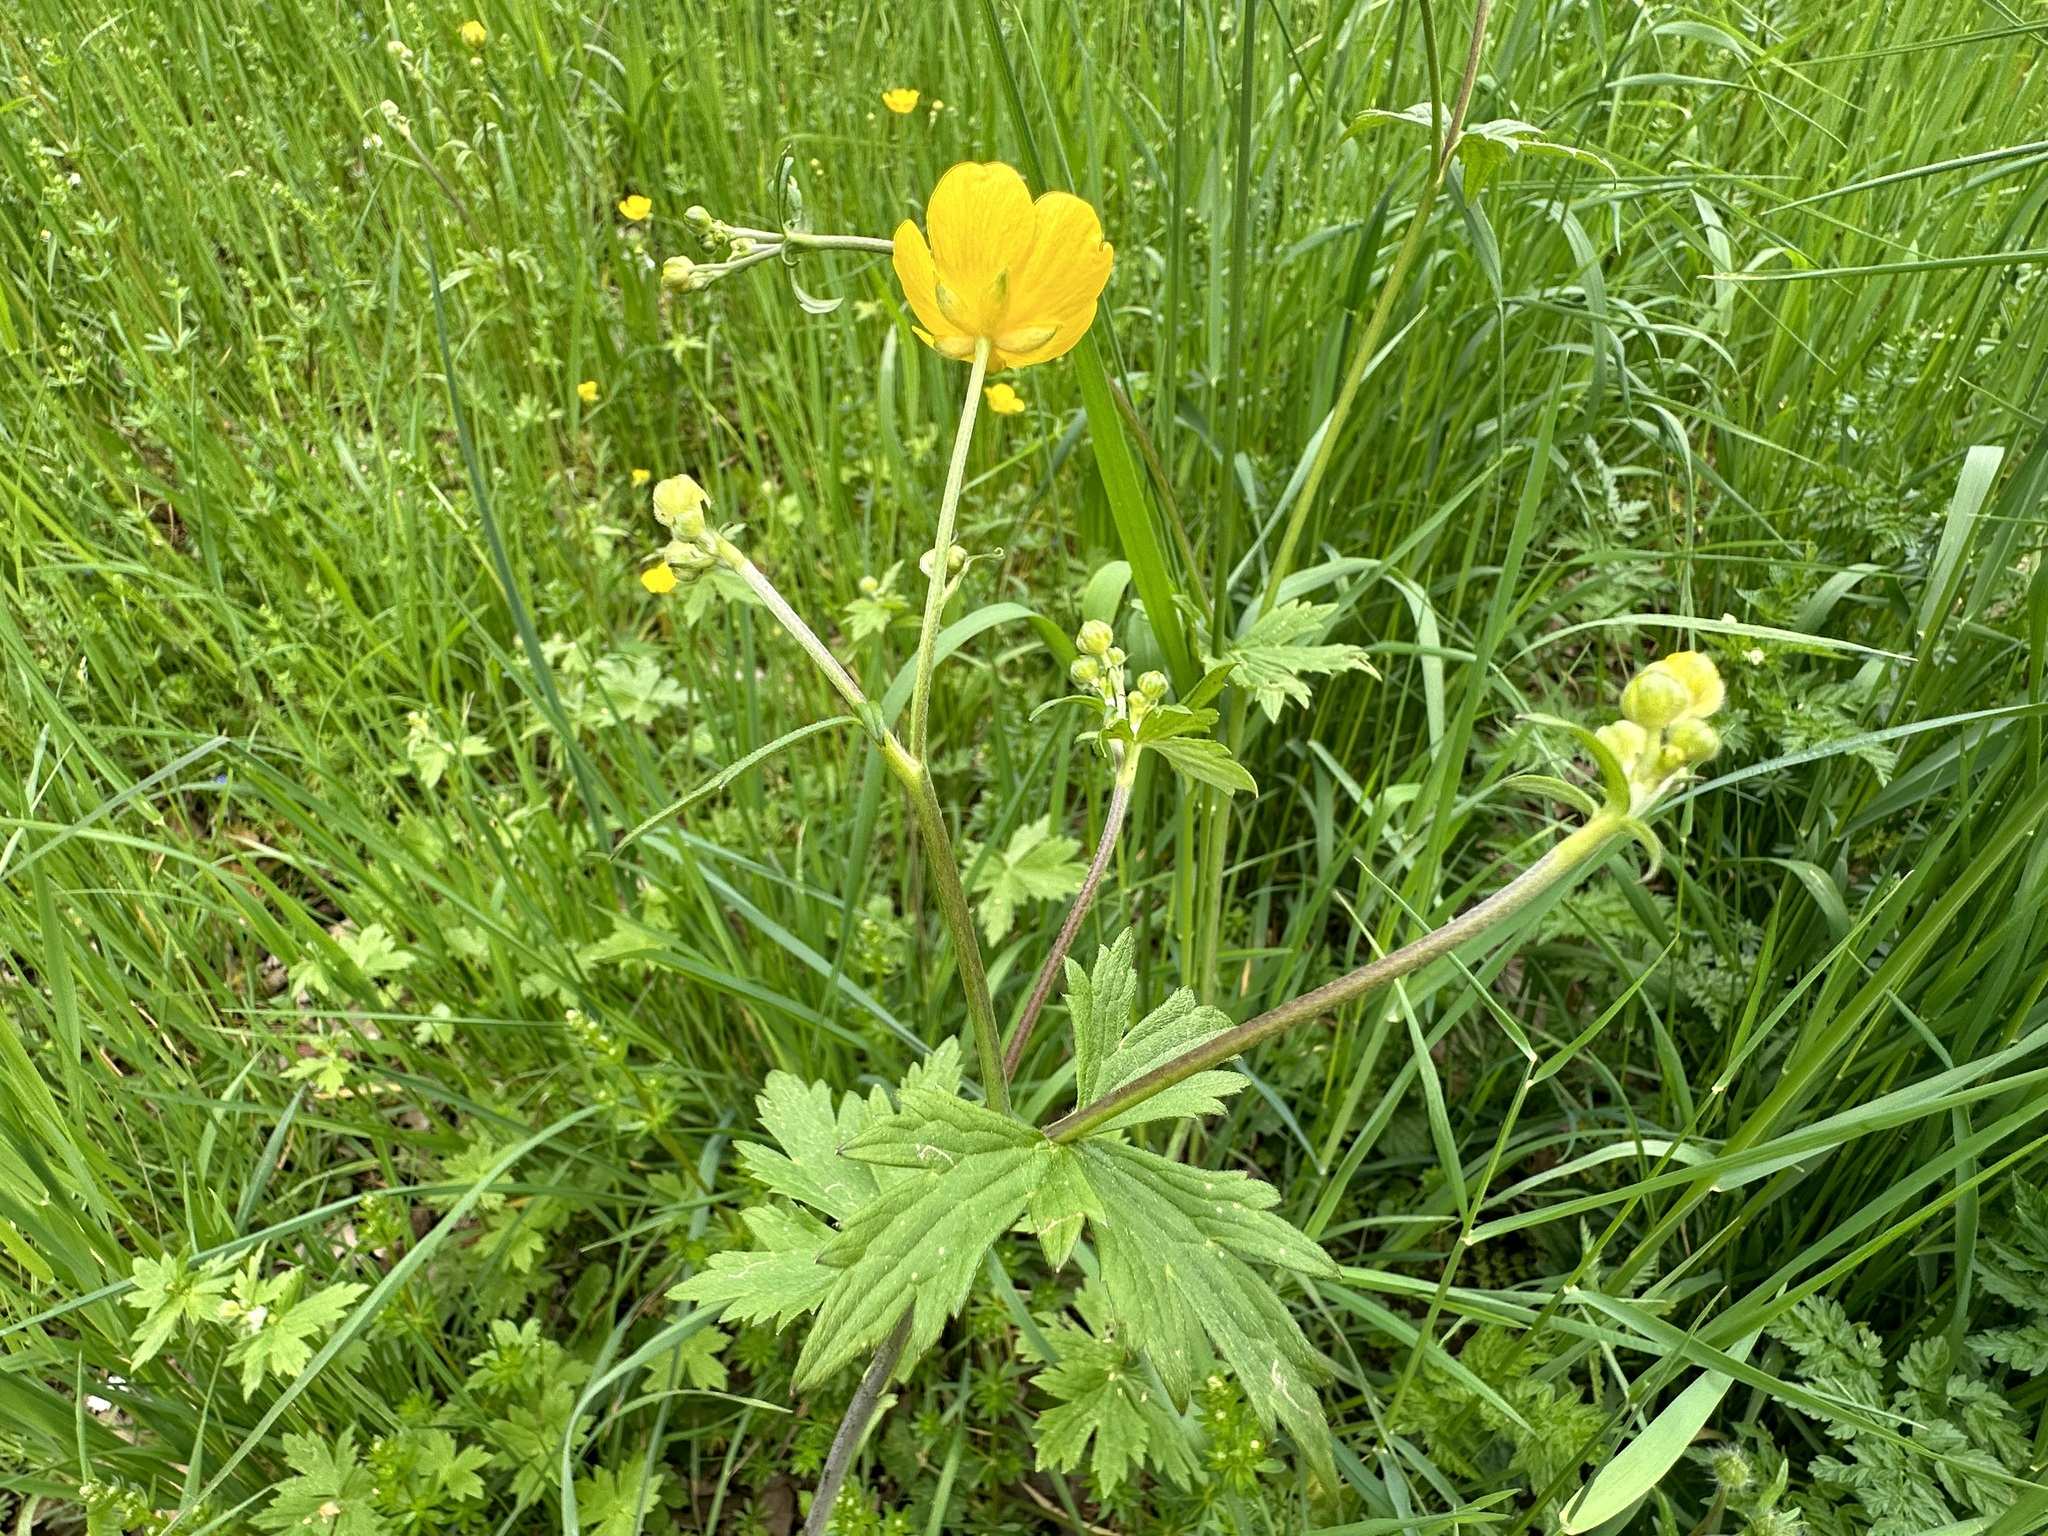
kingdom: Plantae
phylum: Tracheophyta
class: Magnoliopsida
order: Ranunculales
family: Ranunculaceae
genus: Ranunculus
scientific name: Ranunculus acris
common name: Meadow buttercup
